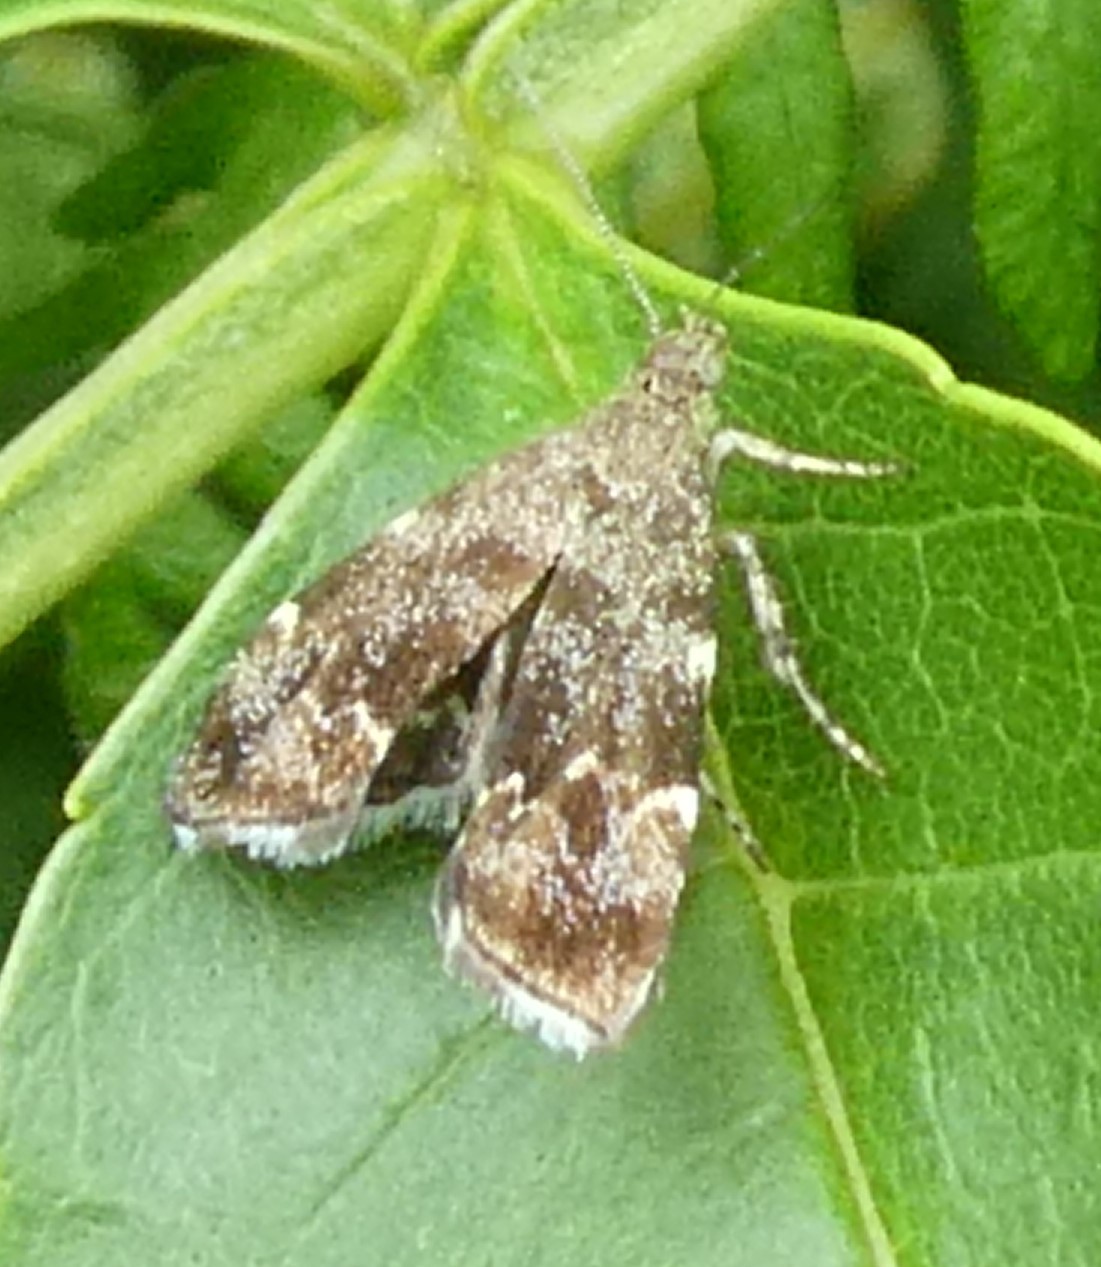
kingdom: Animalia
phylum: Arthropoda
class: Insecta
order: Lepidoptera
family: Choreutidae
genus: Anthophila
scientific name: Anthophila fabriciana
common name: Nettle-tap
